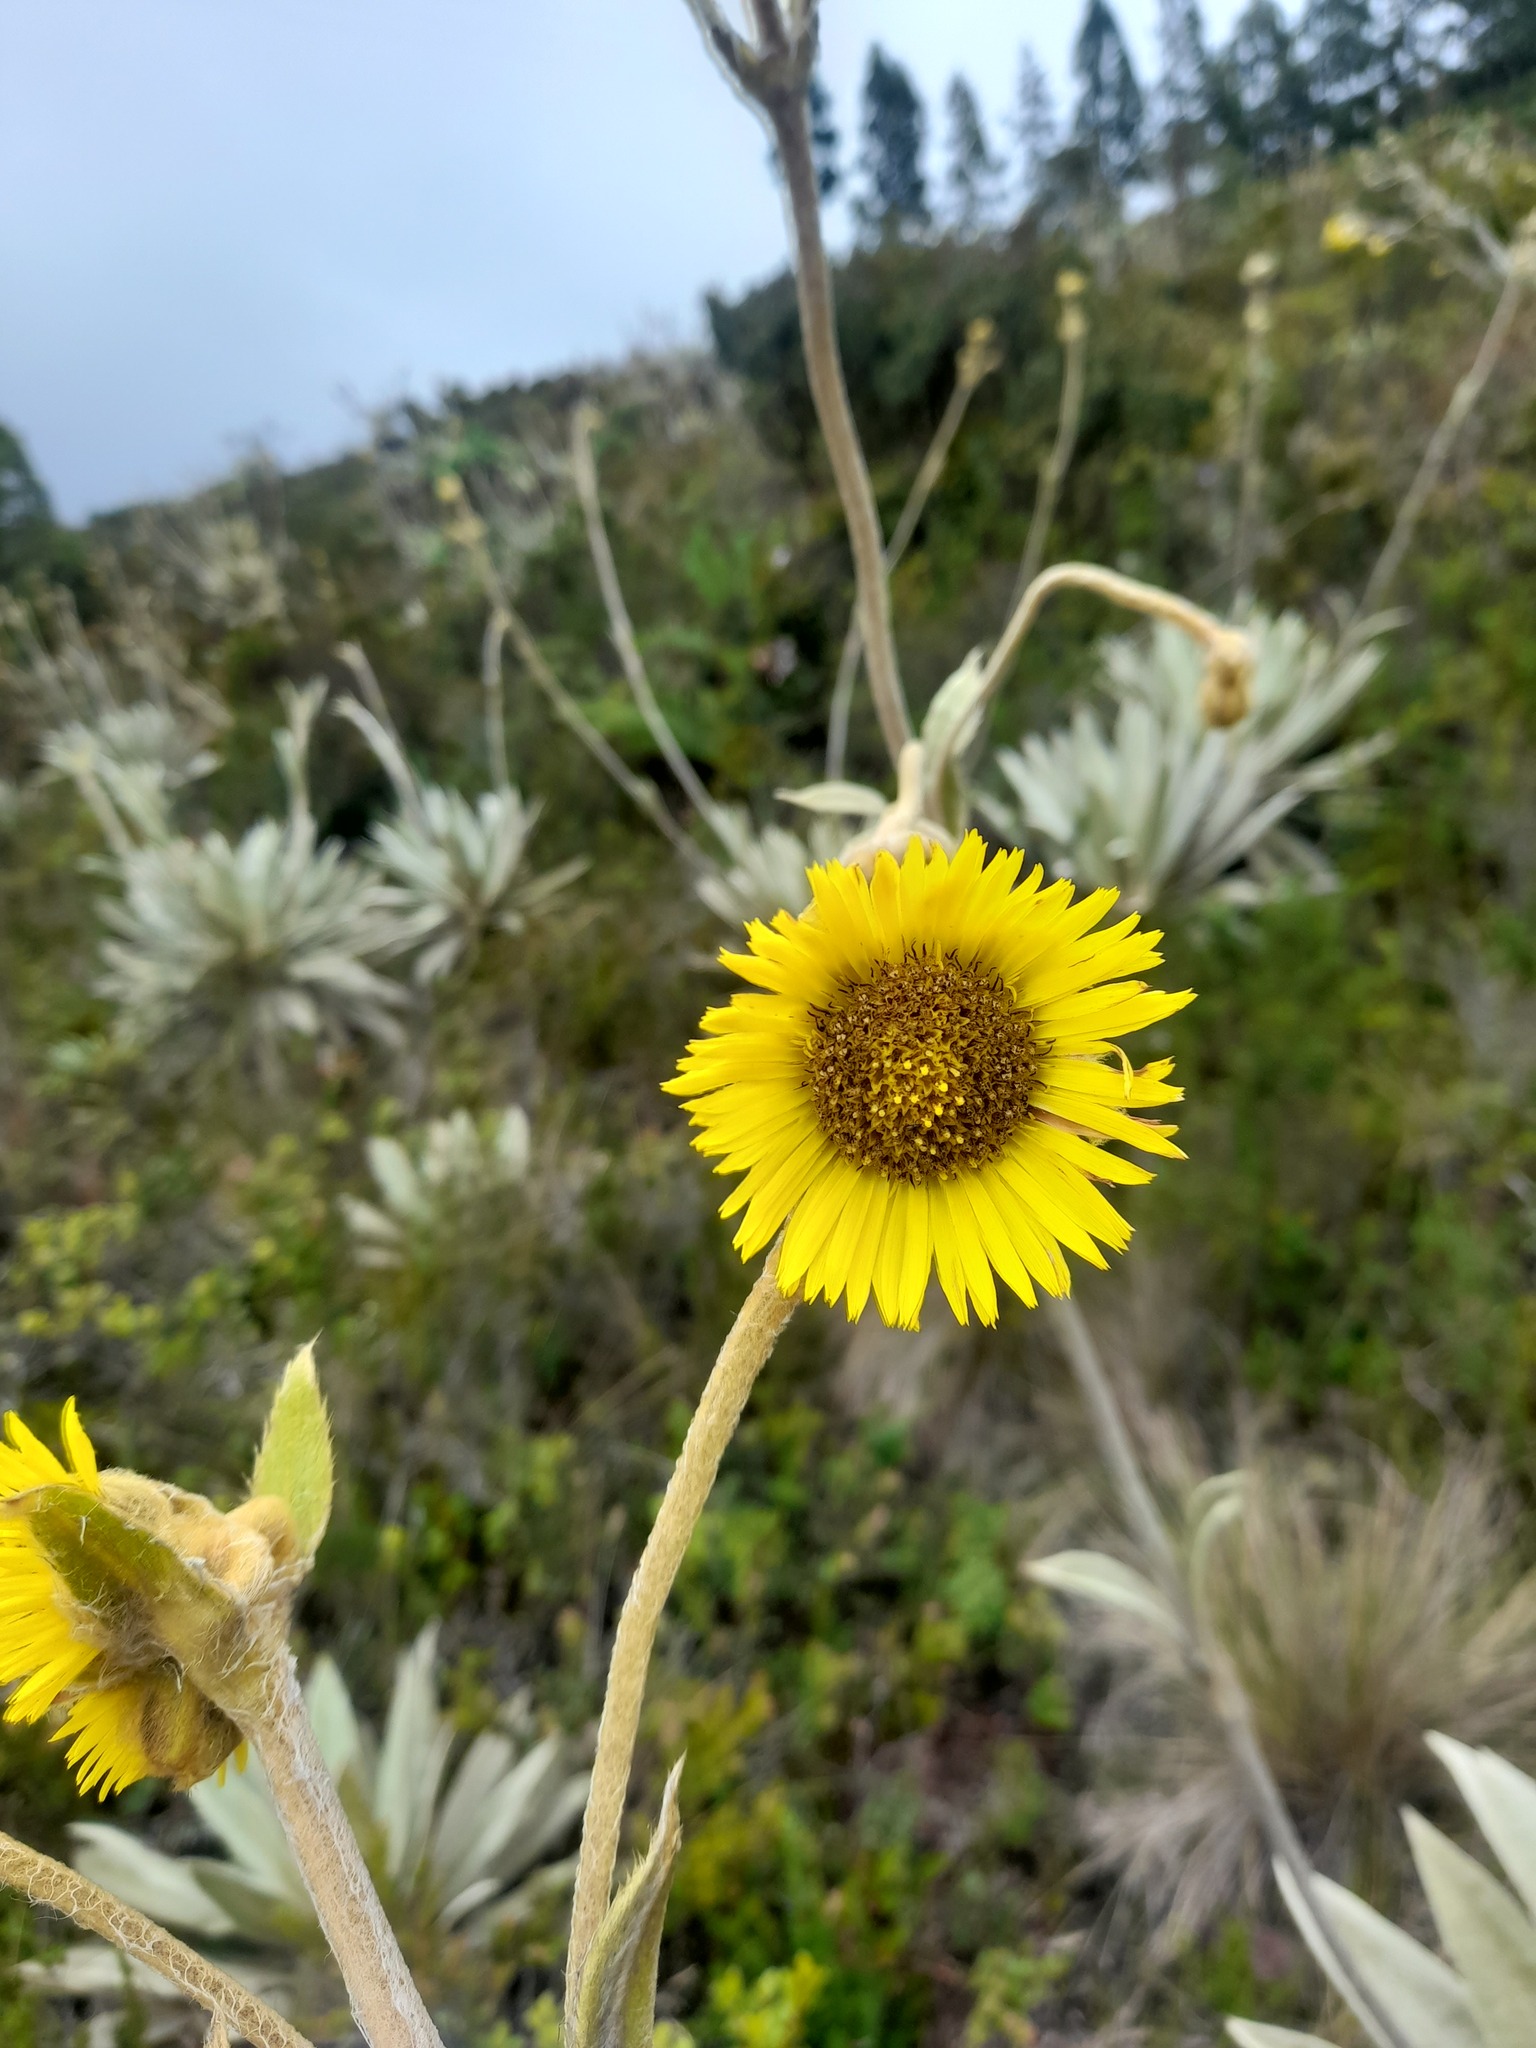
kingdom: Plantae
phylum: Tracheophyta
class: Magnoliopsida
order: Asterales
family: Asteraceae
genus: Espeletia
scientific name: Espeletia grandiflora
